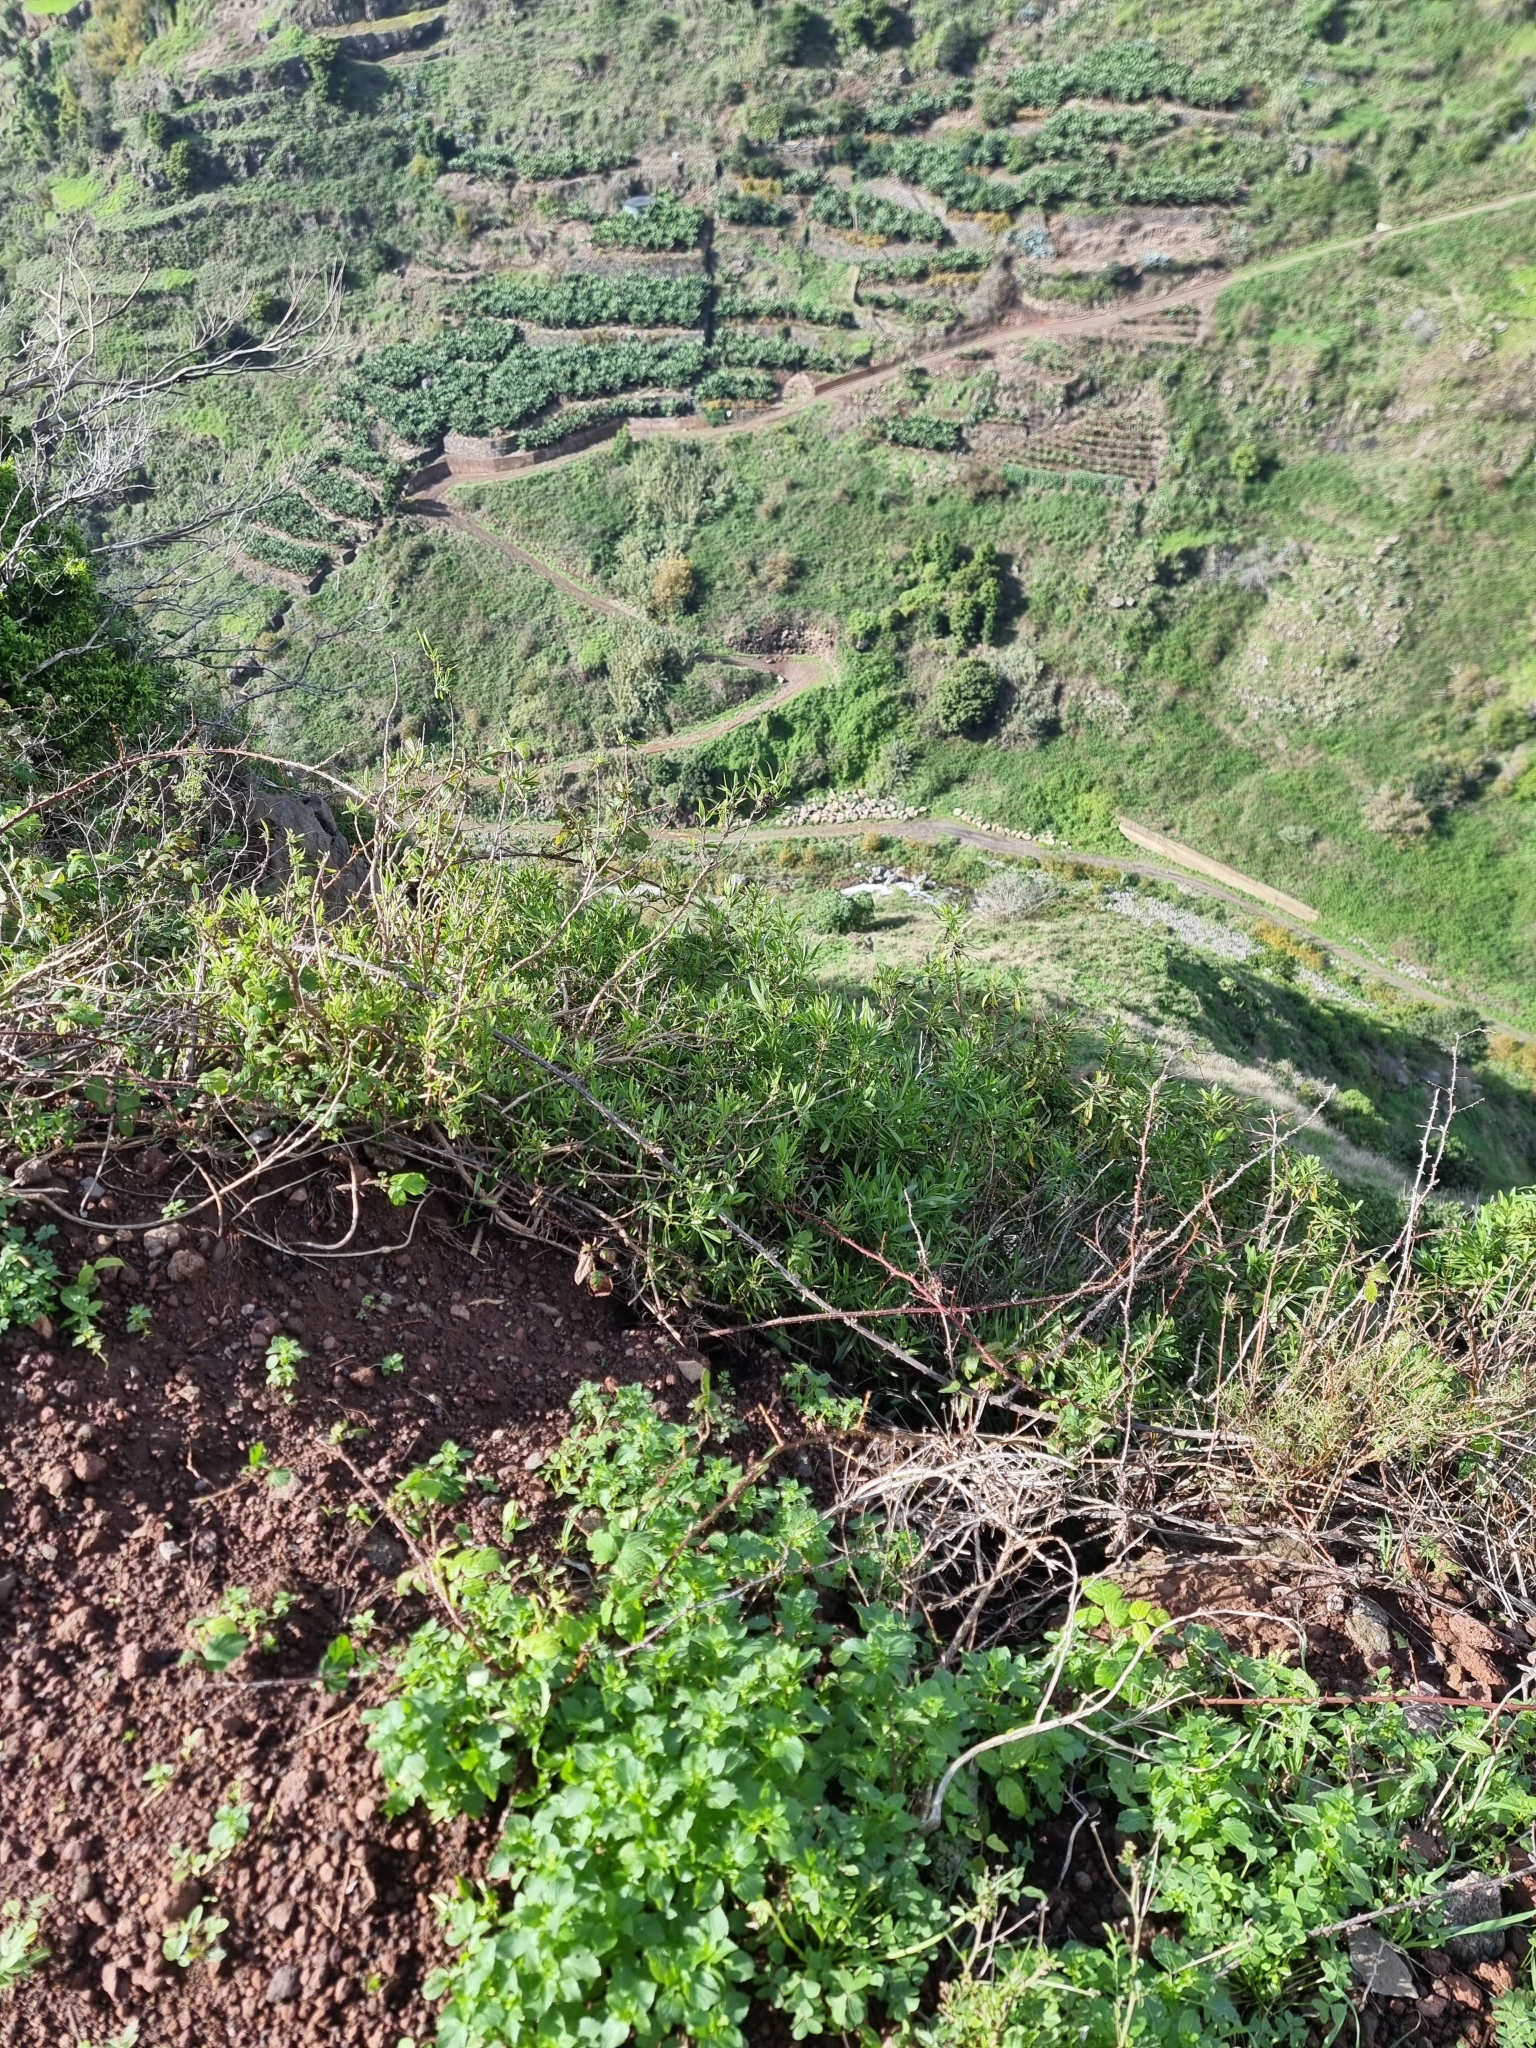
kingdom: Plantae
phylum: Tracheophyta
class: Magnoliopsida
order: Lamiales
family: Plantaginaceae
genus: Globularia
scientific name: Globularia salicina
